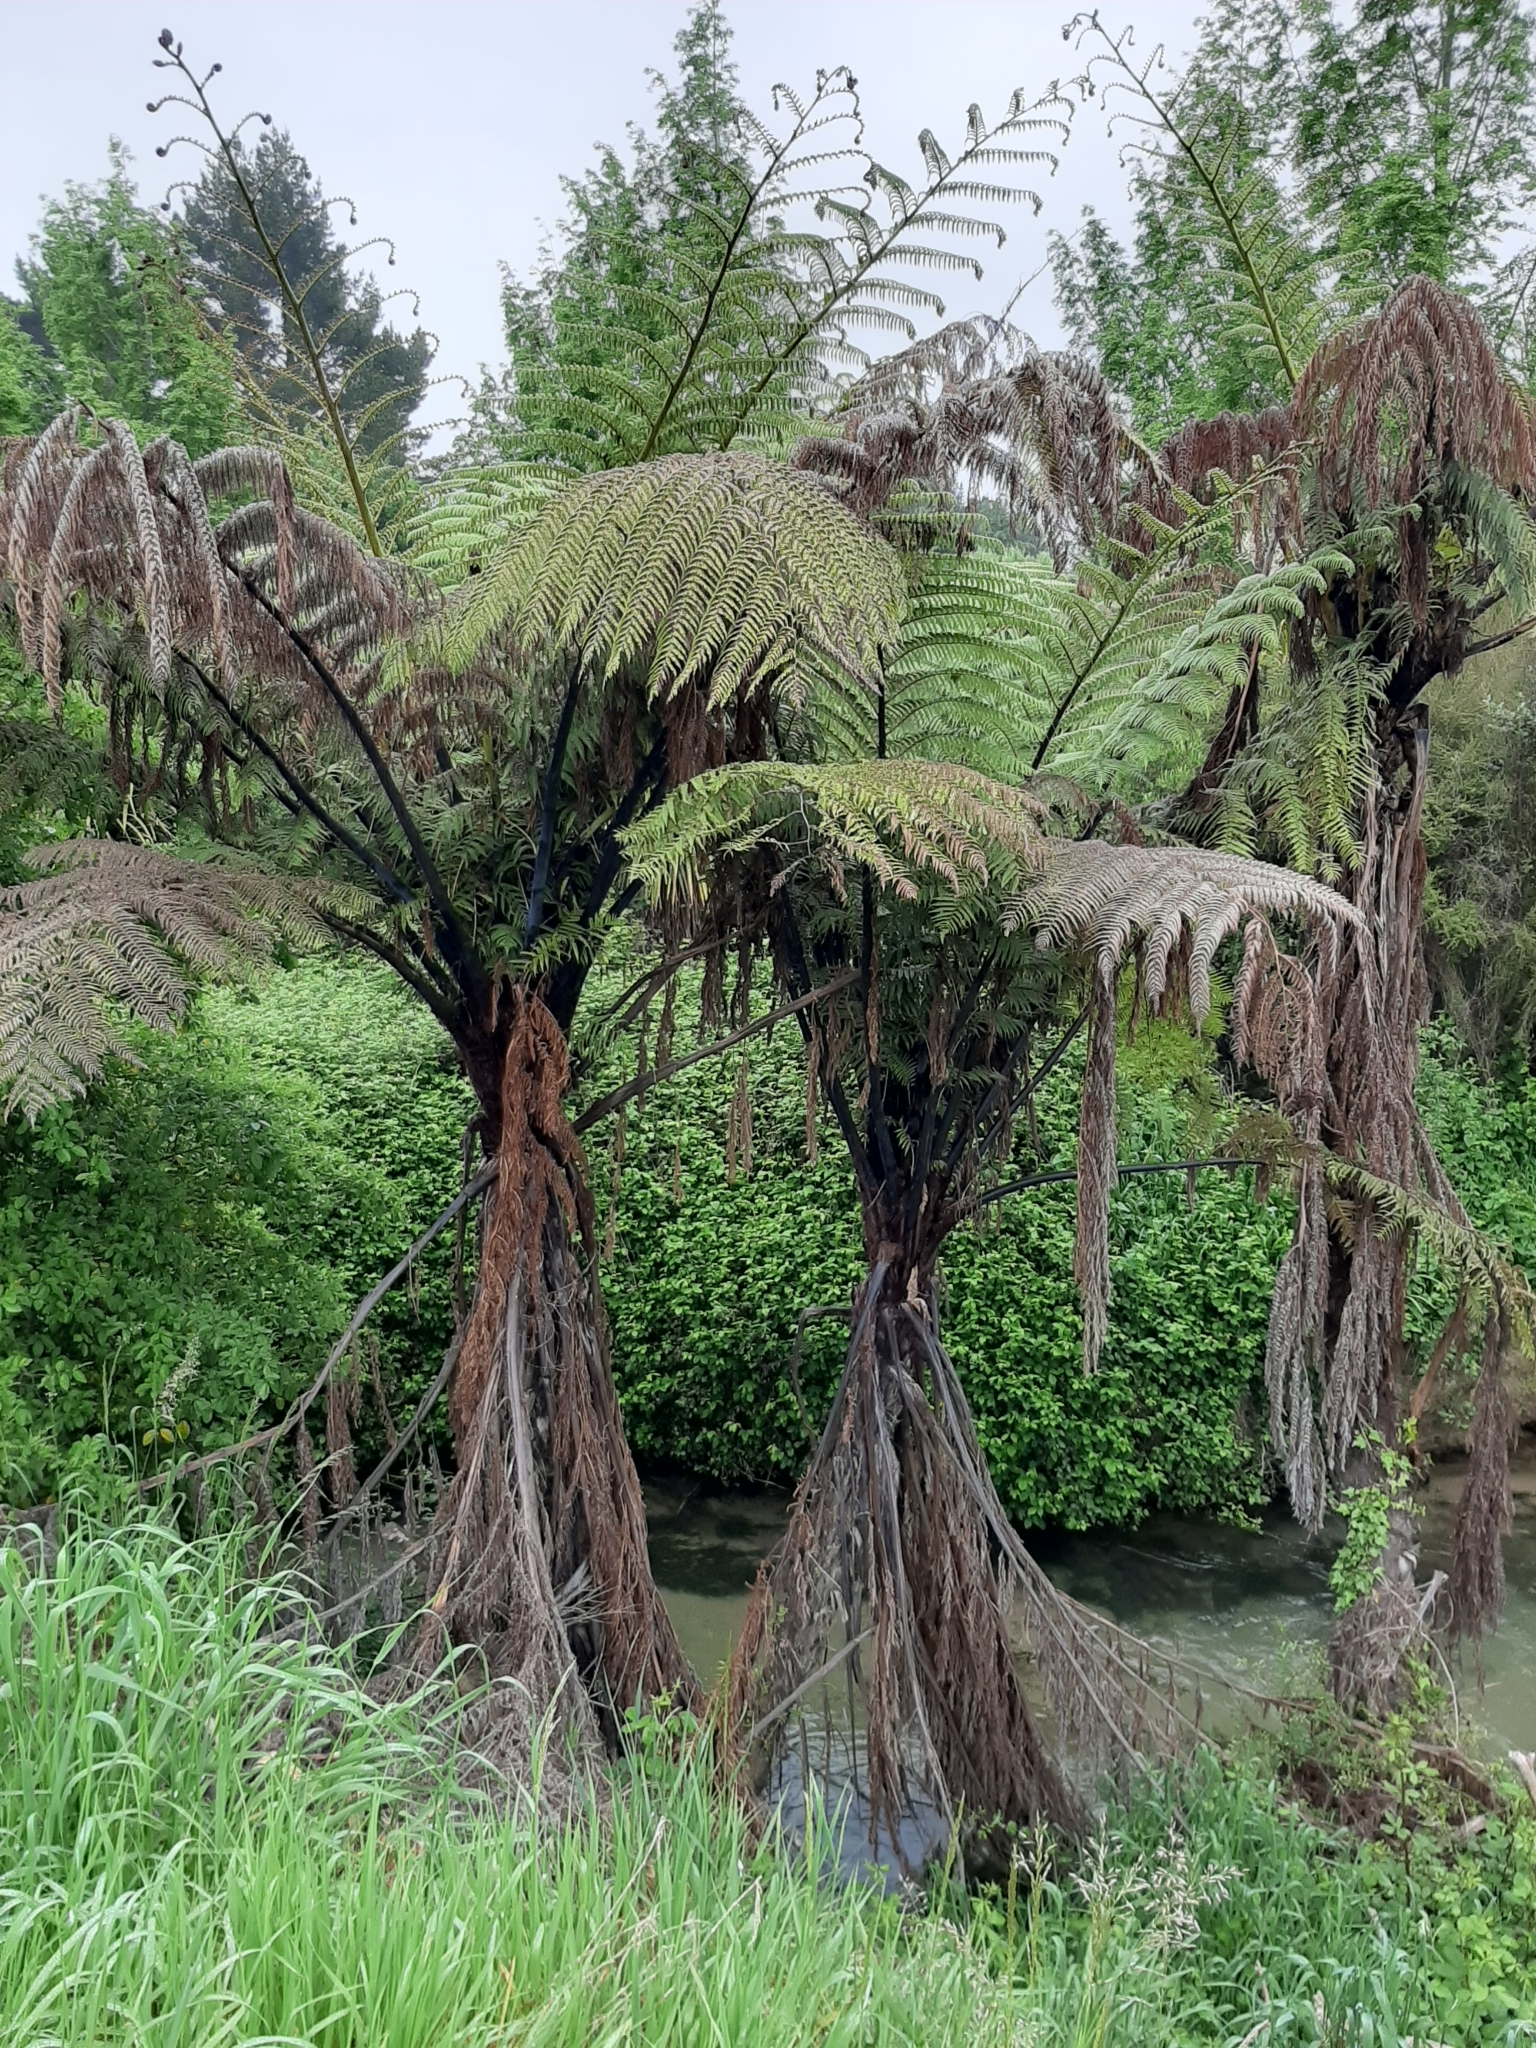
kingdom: Plantae
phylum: Tracheophyta
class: Polypodiopsida
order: Cyatheales
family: Cyatheaceae
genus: Sphaeropteris
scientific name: Sphaeropteris medullaris
